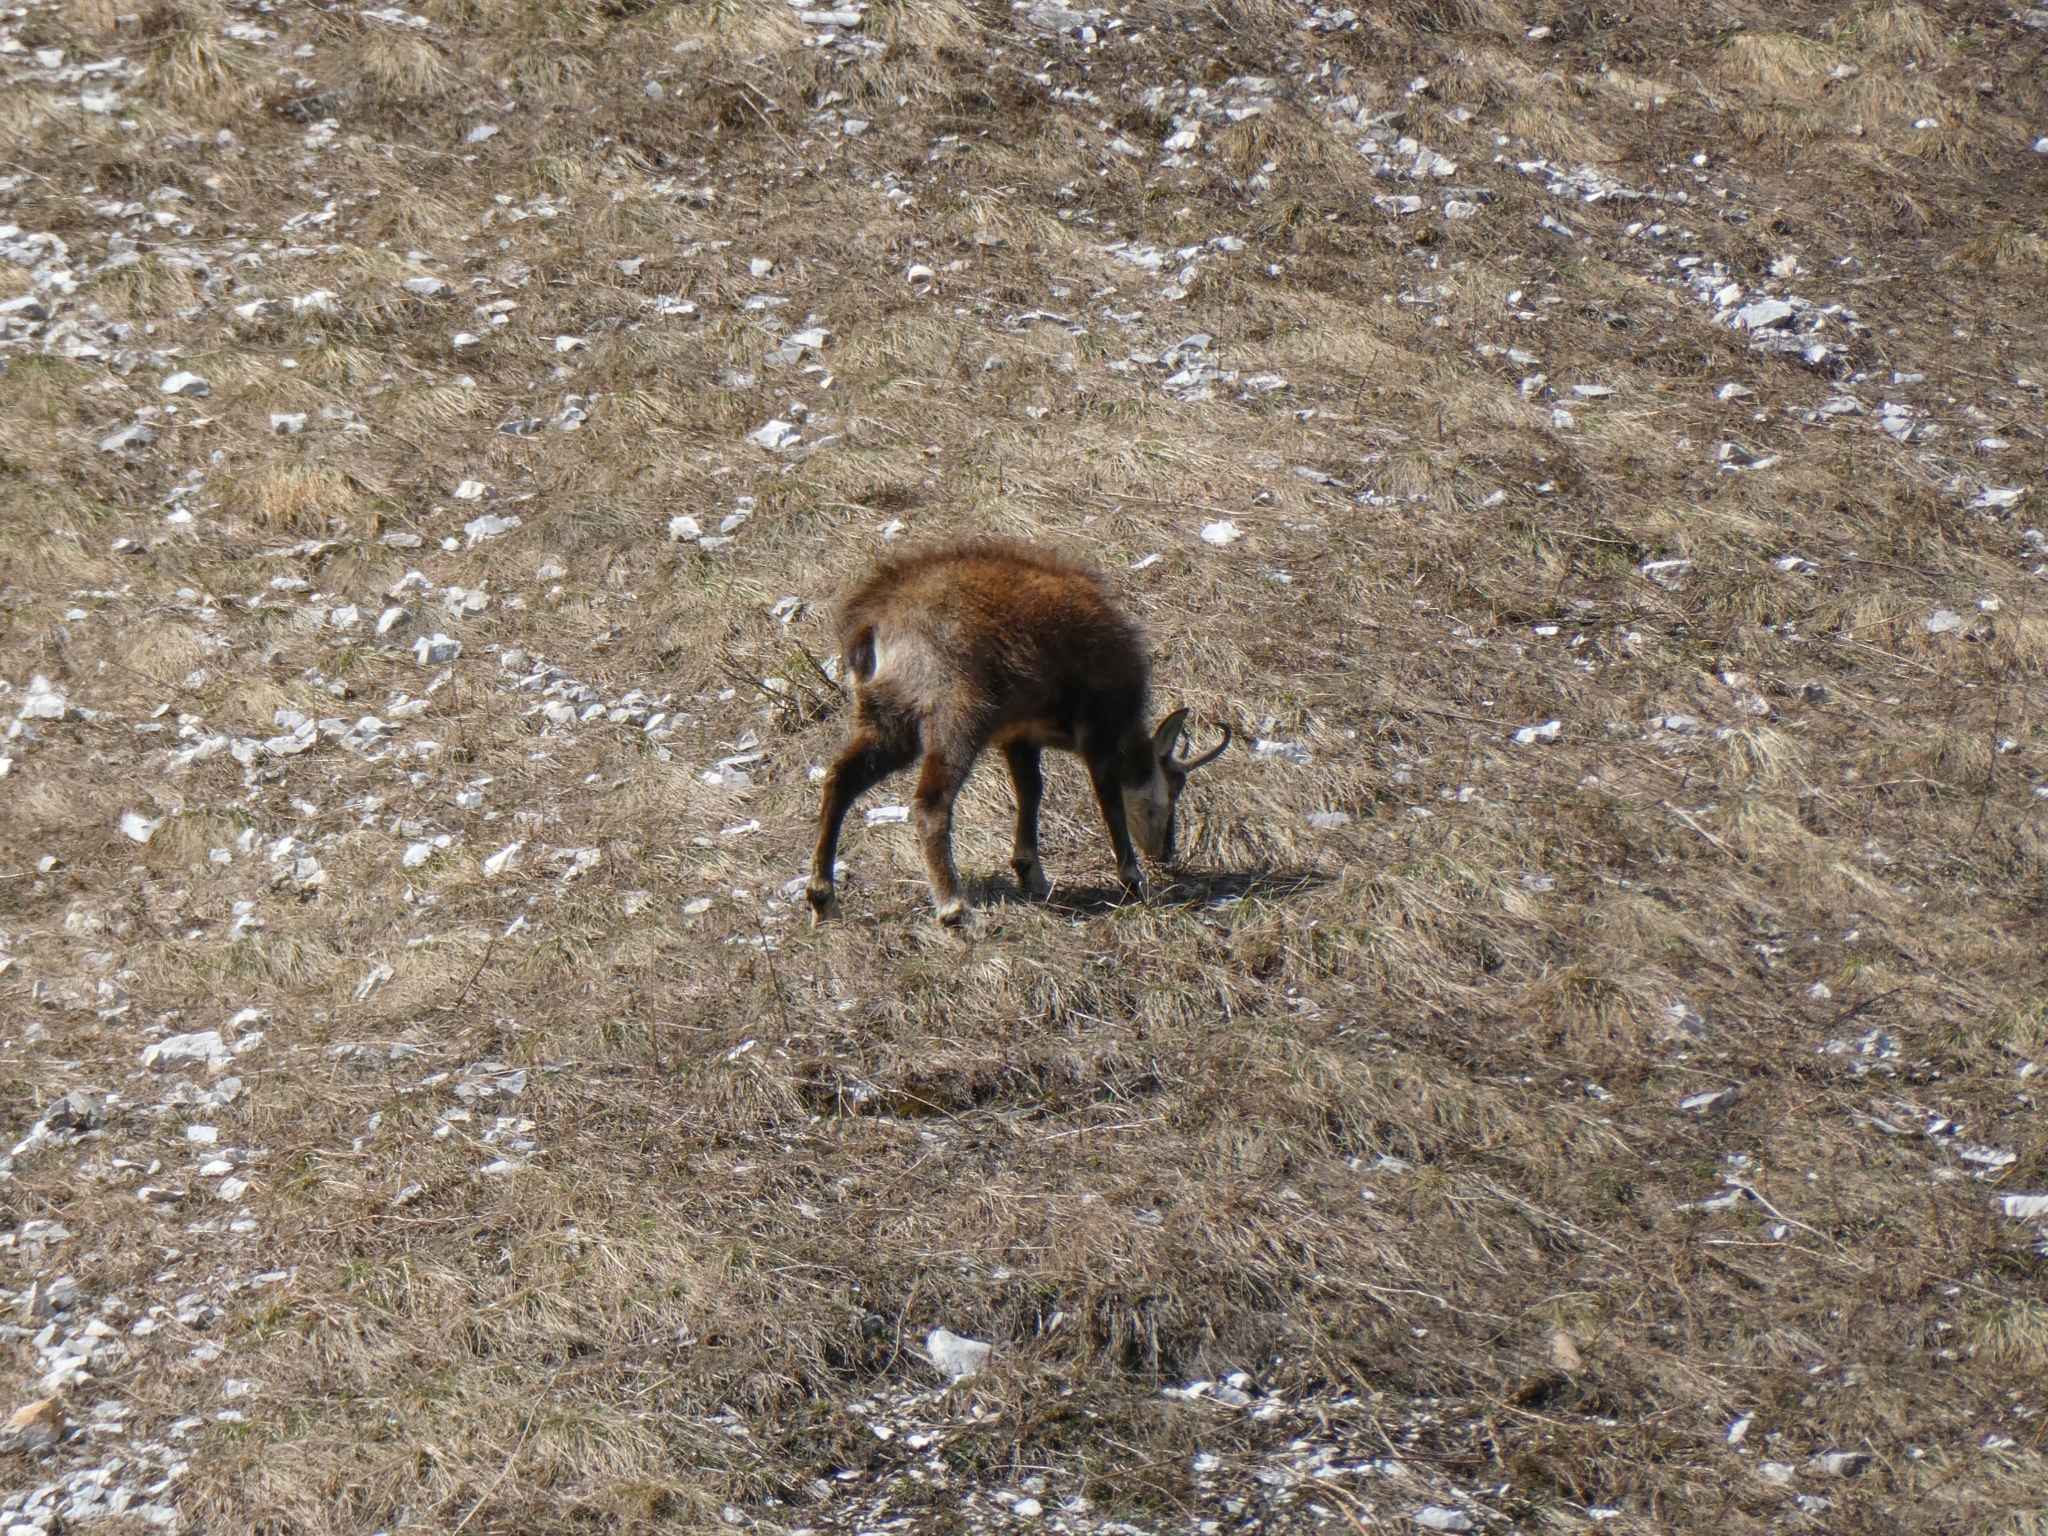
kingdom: Animalia
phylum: Chordata
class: Mammalia
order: Artiodactyla
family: Bovidae
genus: Rupicapra
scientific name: Rupicapra rupicapra
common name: Chamois
